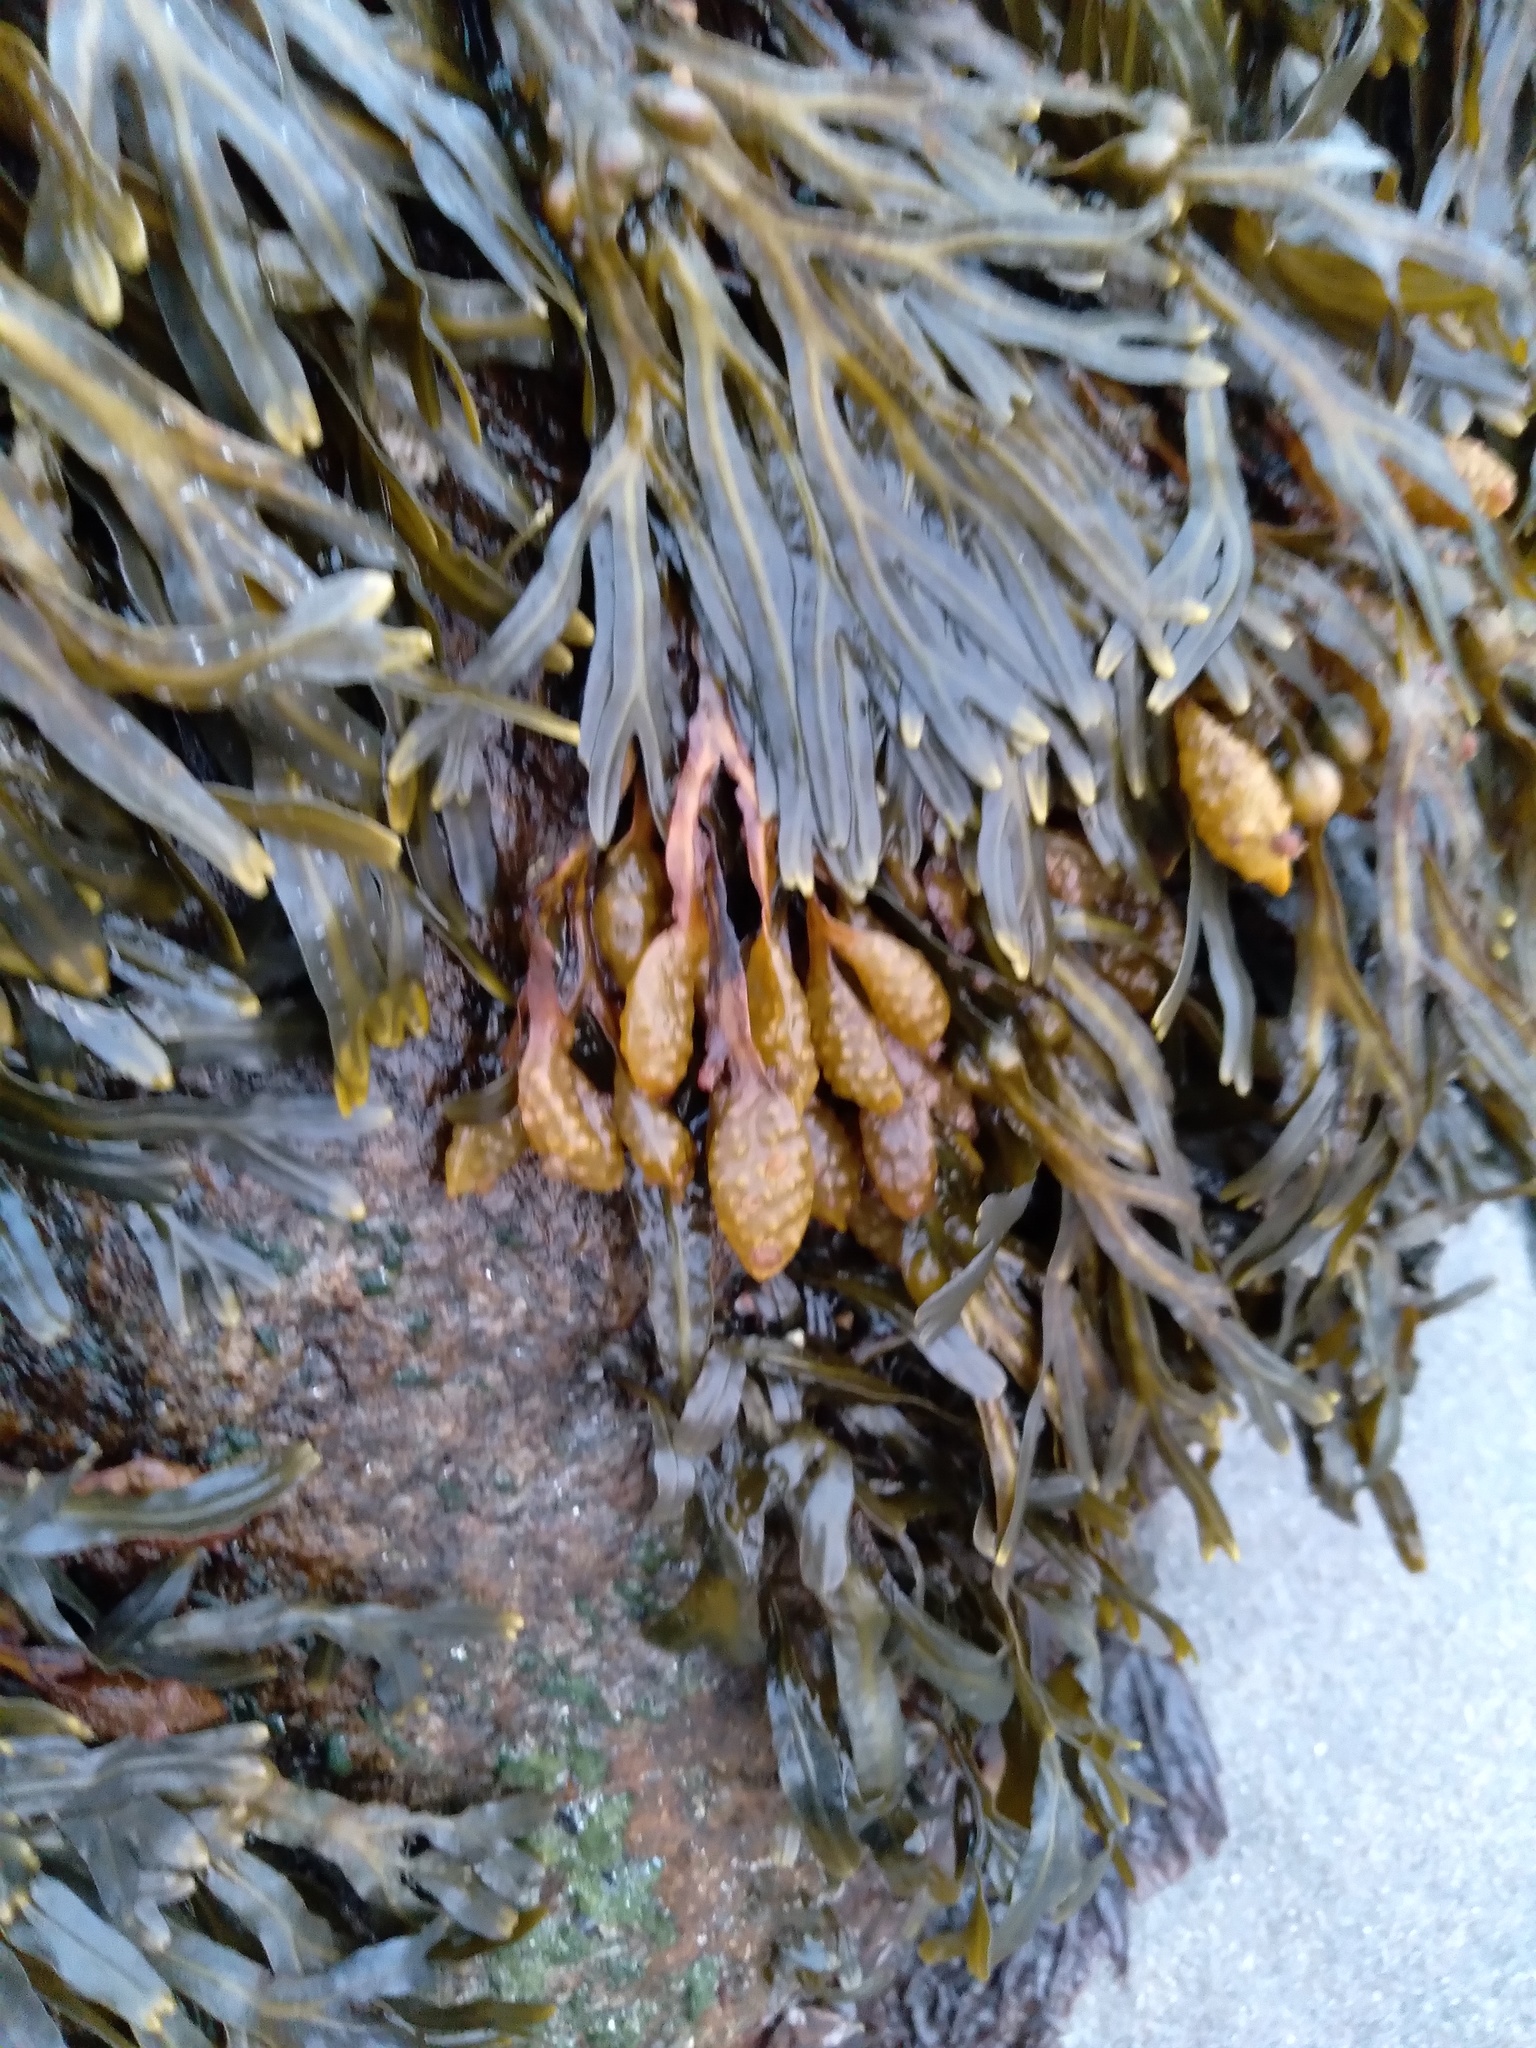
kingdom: Chromista
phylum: Ochrophyta
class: Phaeophyceae
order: Fucales
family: Fucaceae
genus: Fucus
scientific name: Fucus vesiculosus
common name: Bladder wrack
